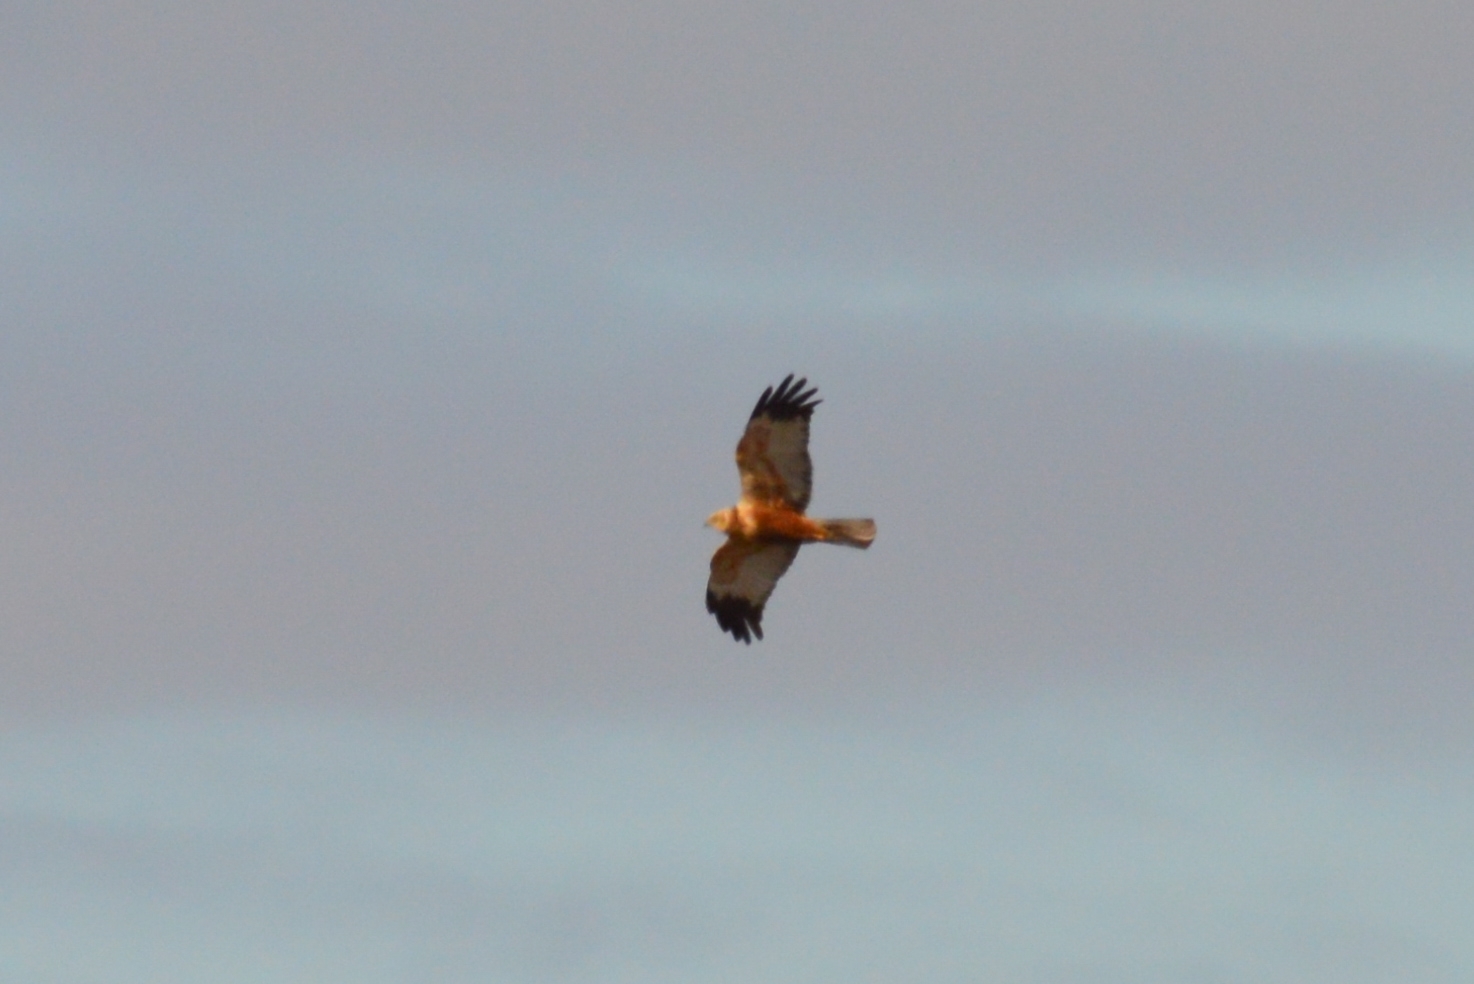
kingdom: Animalia
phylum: Chordata
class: Aves
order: Accipitriformes
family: Accipitridae
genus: Circus
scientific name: Circus aeruginosus
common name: Western marsh harrier
